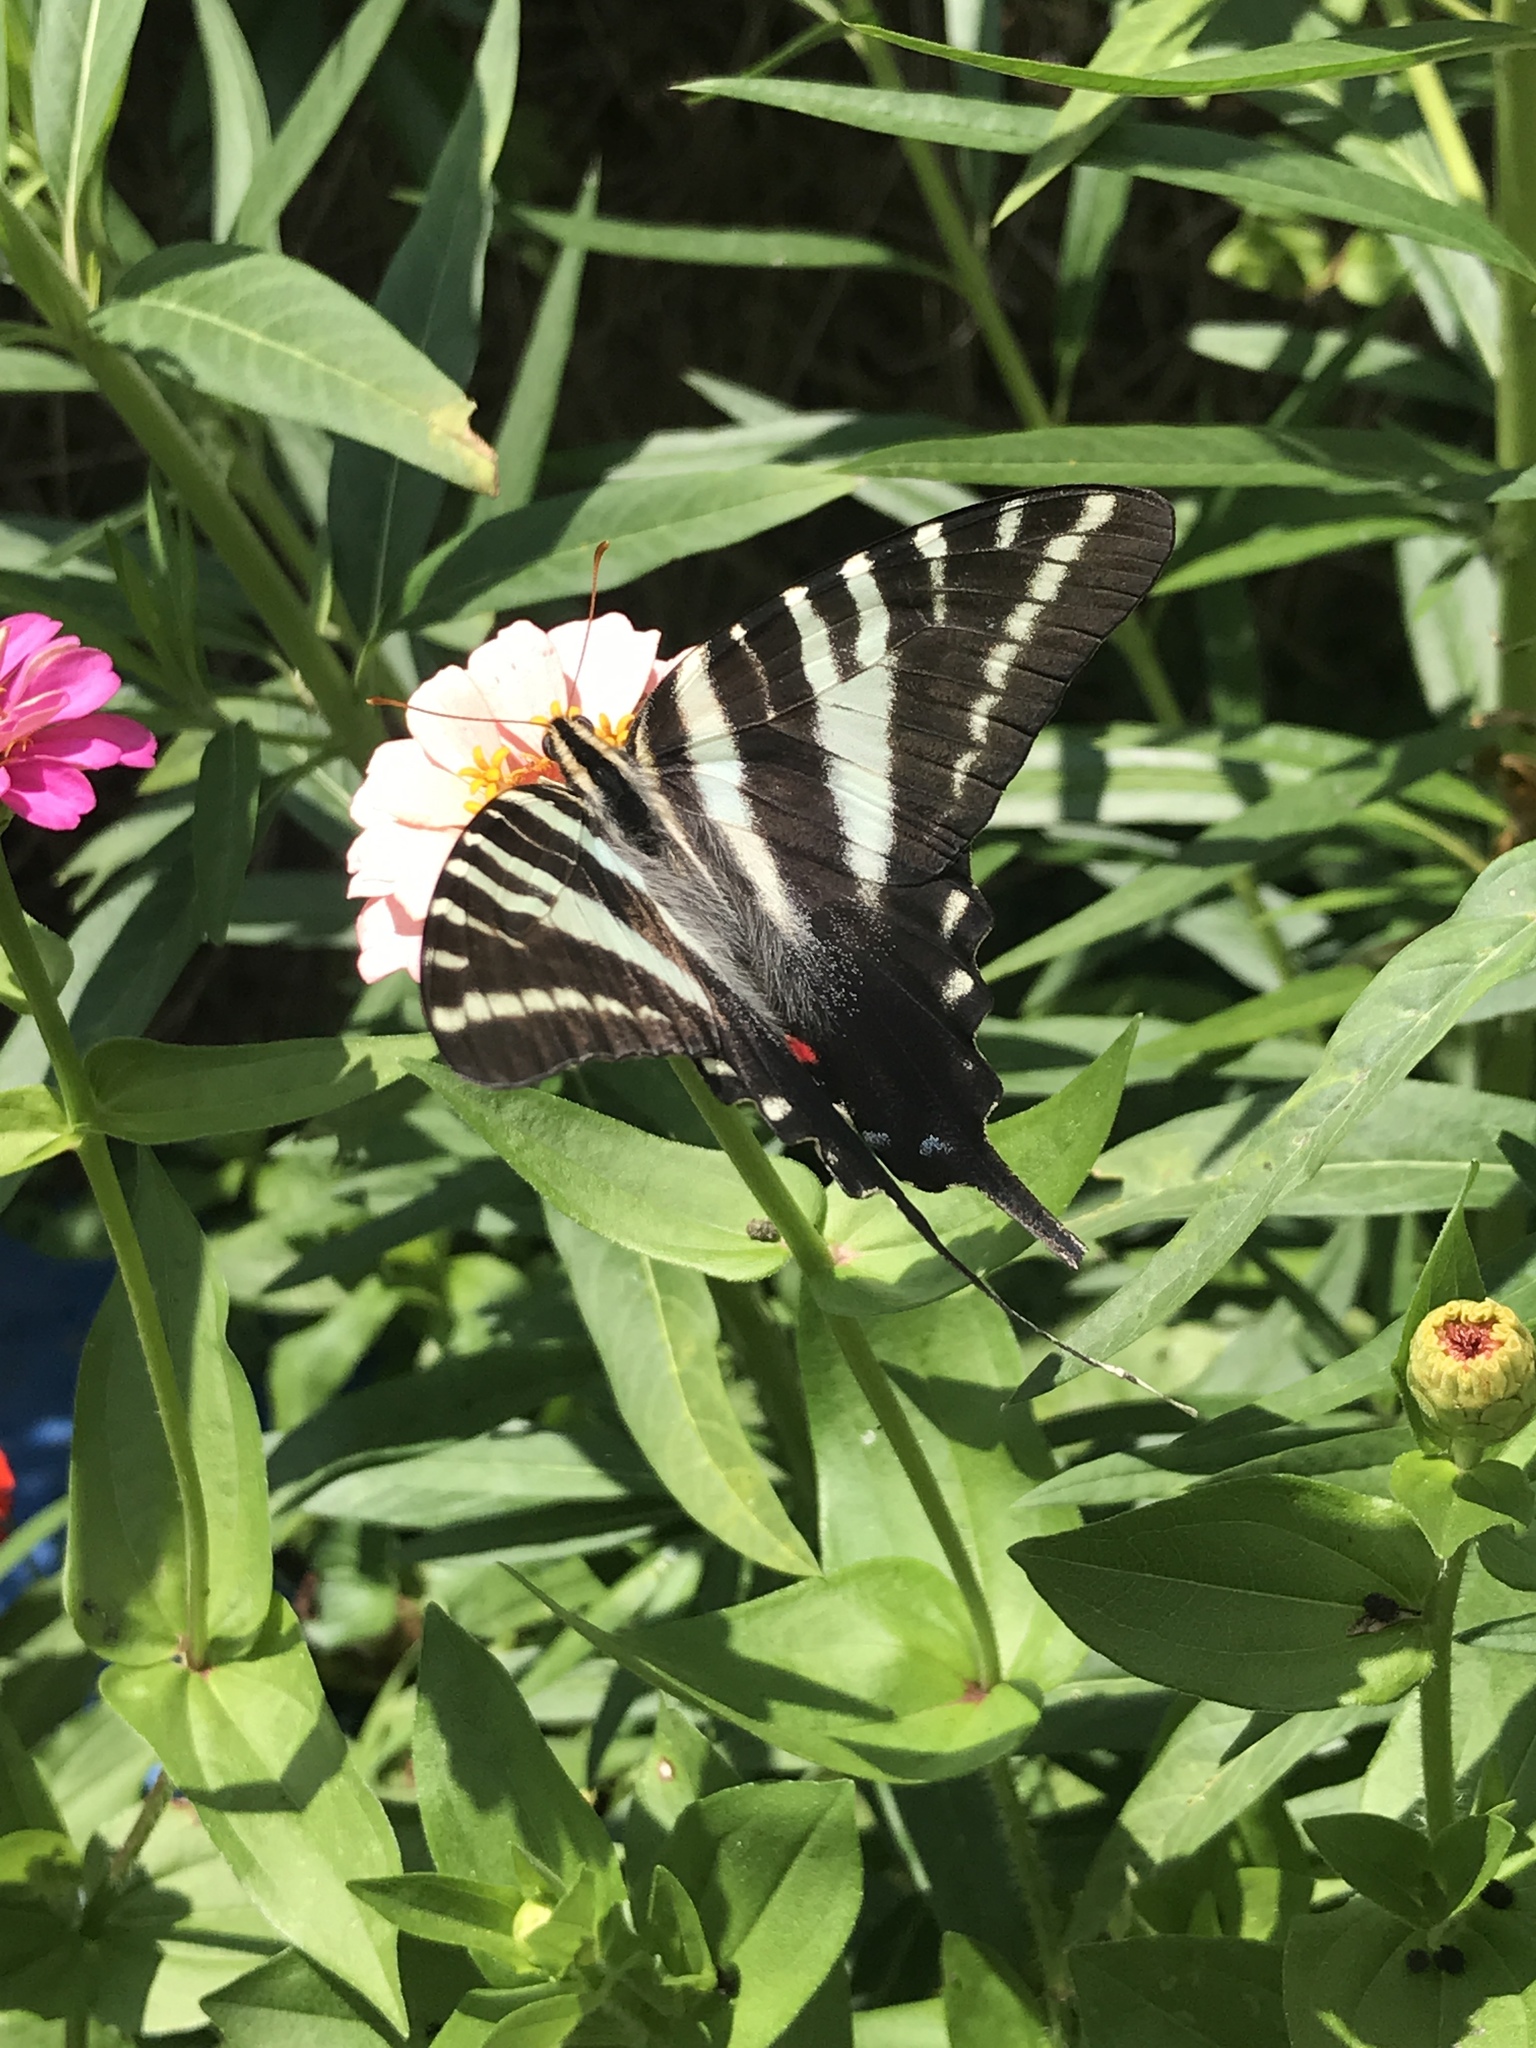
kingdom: Animalia
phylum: Arthropoda
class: Insecta
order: Lepidoptera
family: Papilionidae
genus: Protographium
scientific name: Protographium marcellus
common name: Zebra swallowtail
